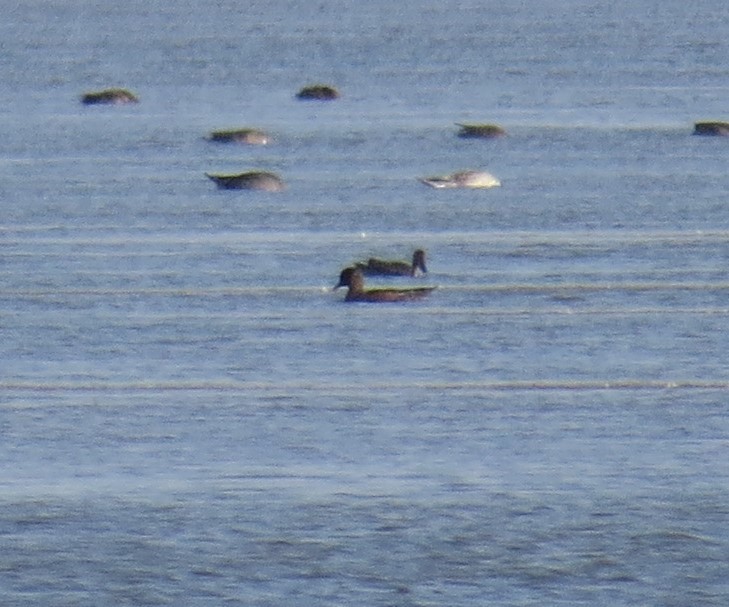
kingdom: Animalia
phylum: Chordata
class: Aves
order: Anseriformes
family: Anatidae
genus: Mareca
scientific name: Mareca penelope
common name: Eurasian wigeon
